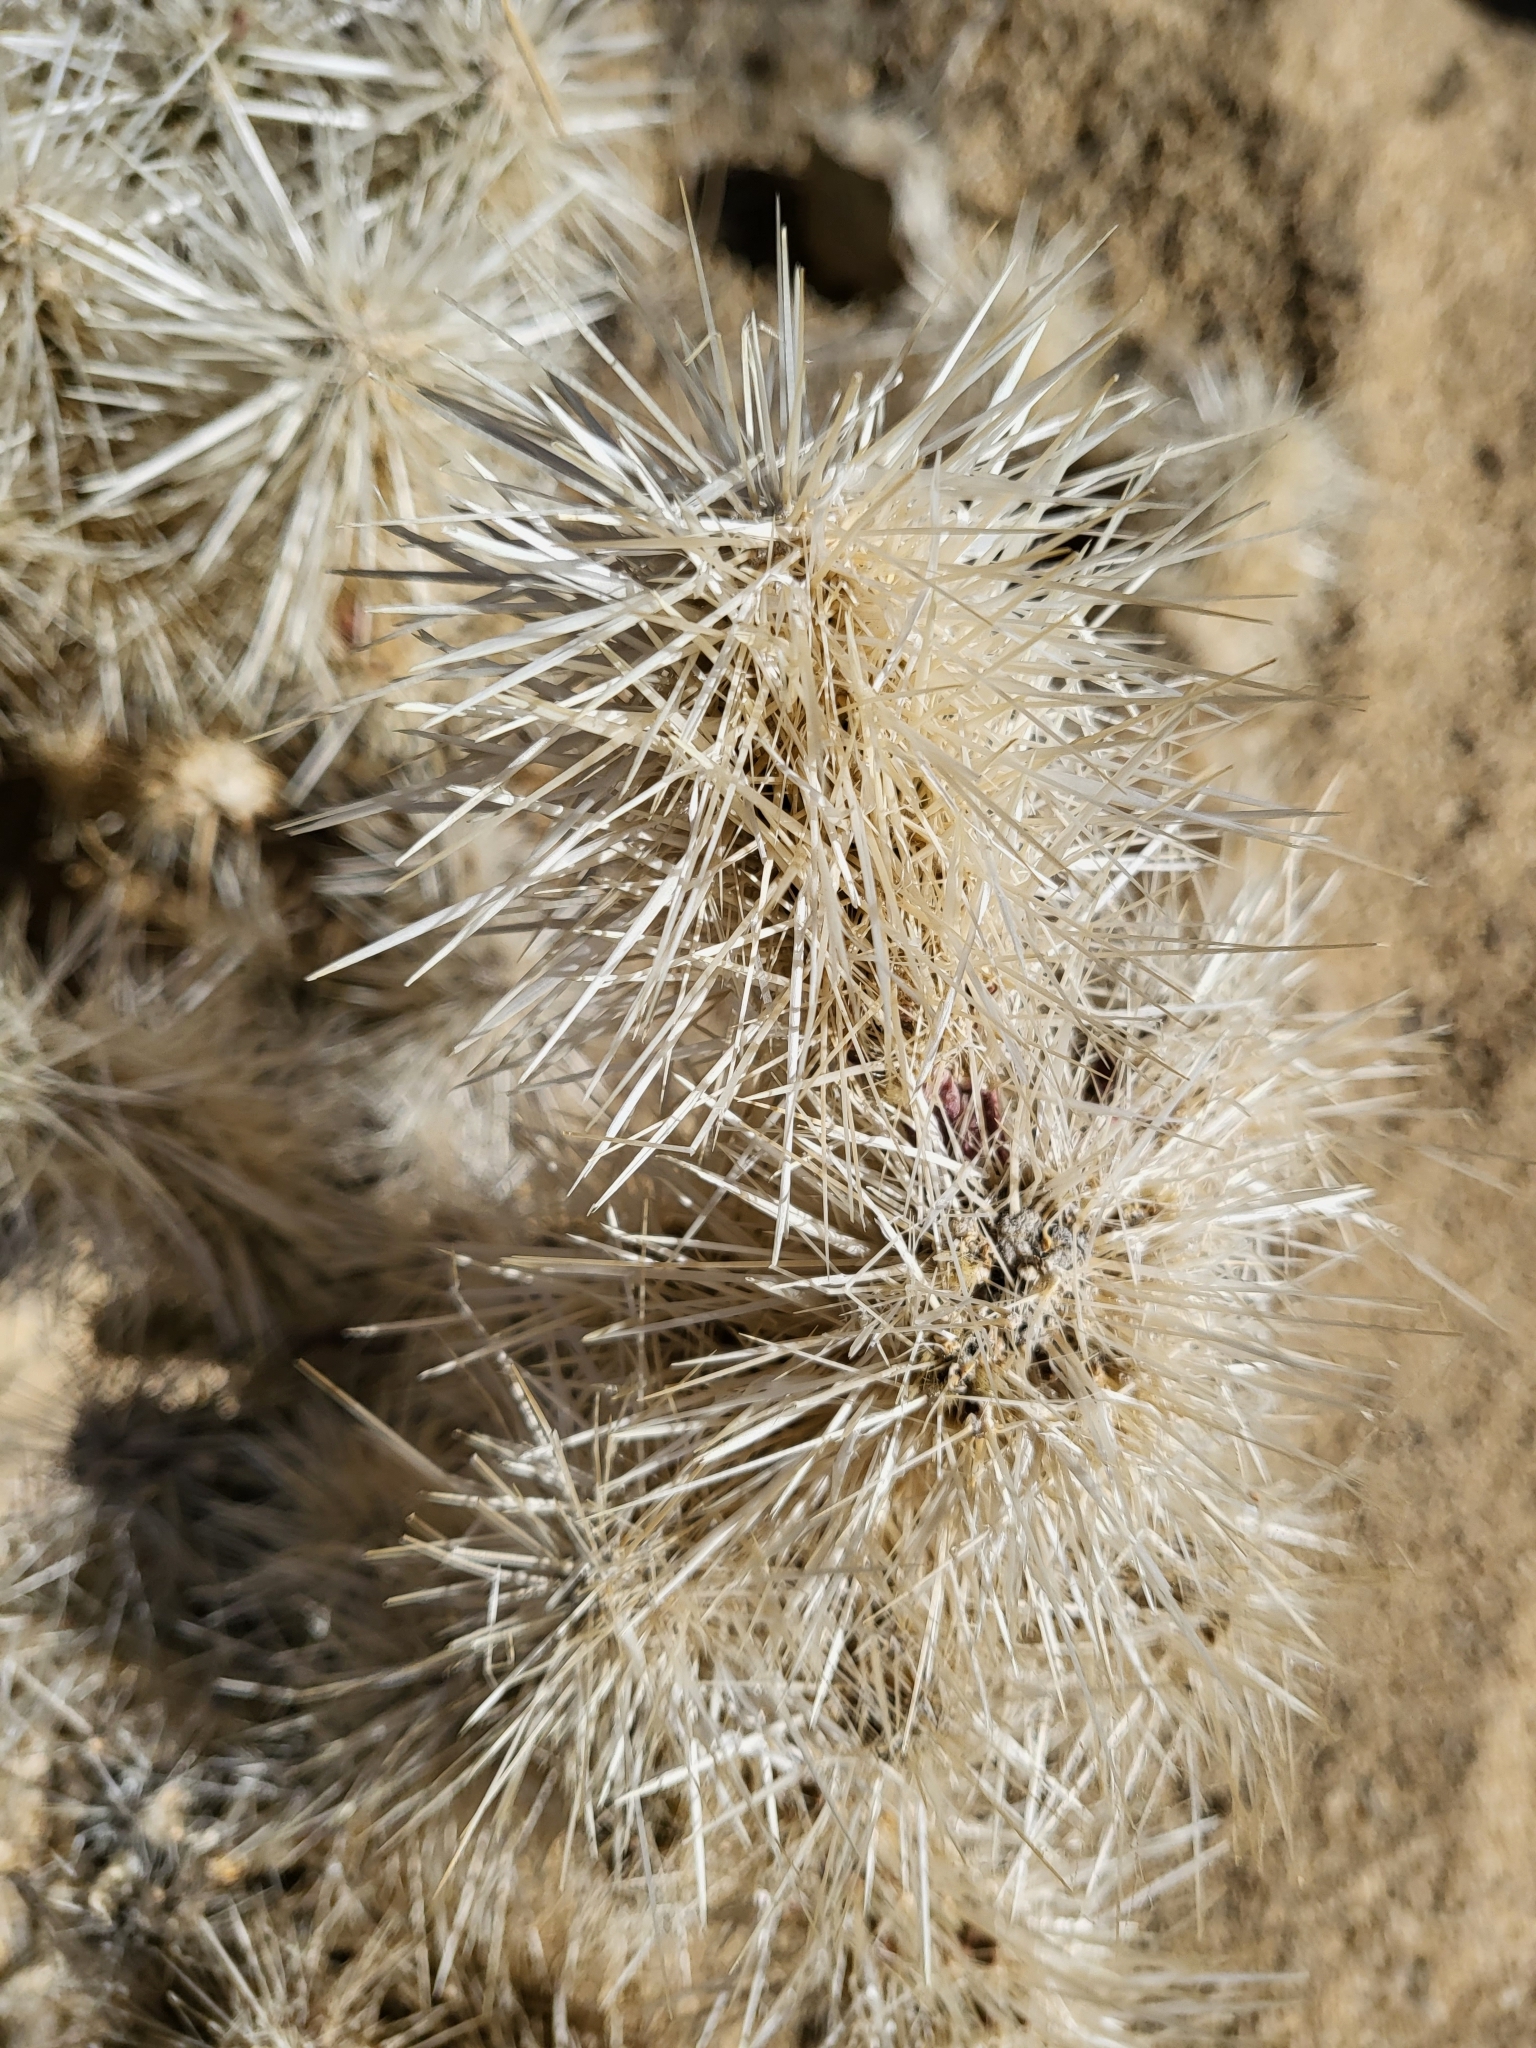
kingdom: Plantae
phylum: Tracheophyta
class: Magnoliopsida
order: Caryophyllales
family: Cactaceae
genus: Cylindropuntia
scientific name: Cylindropuntia echinocarpa
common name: Ground cholla
